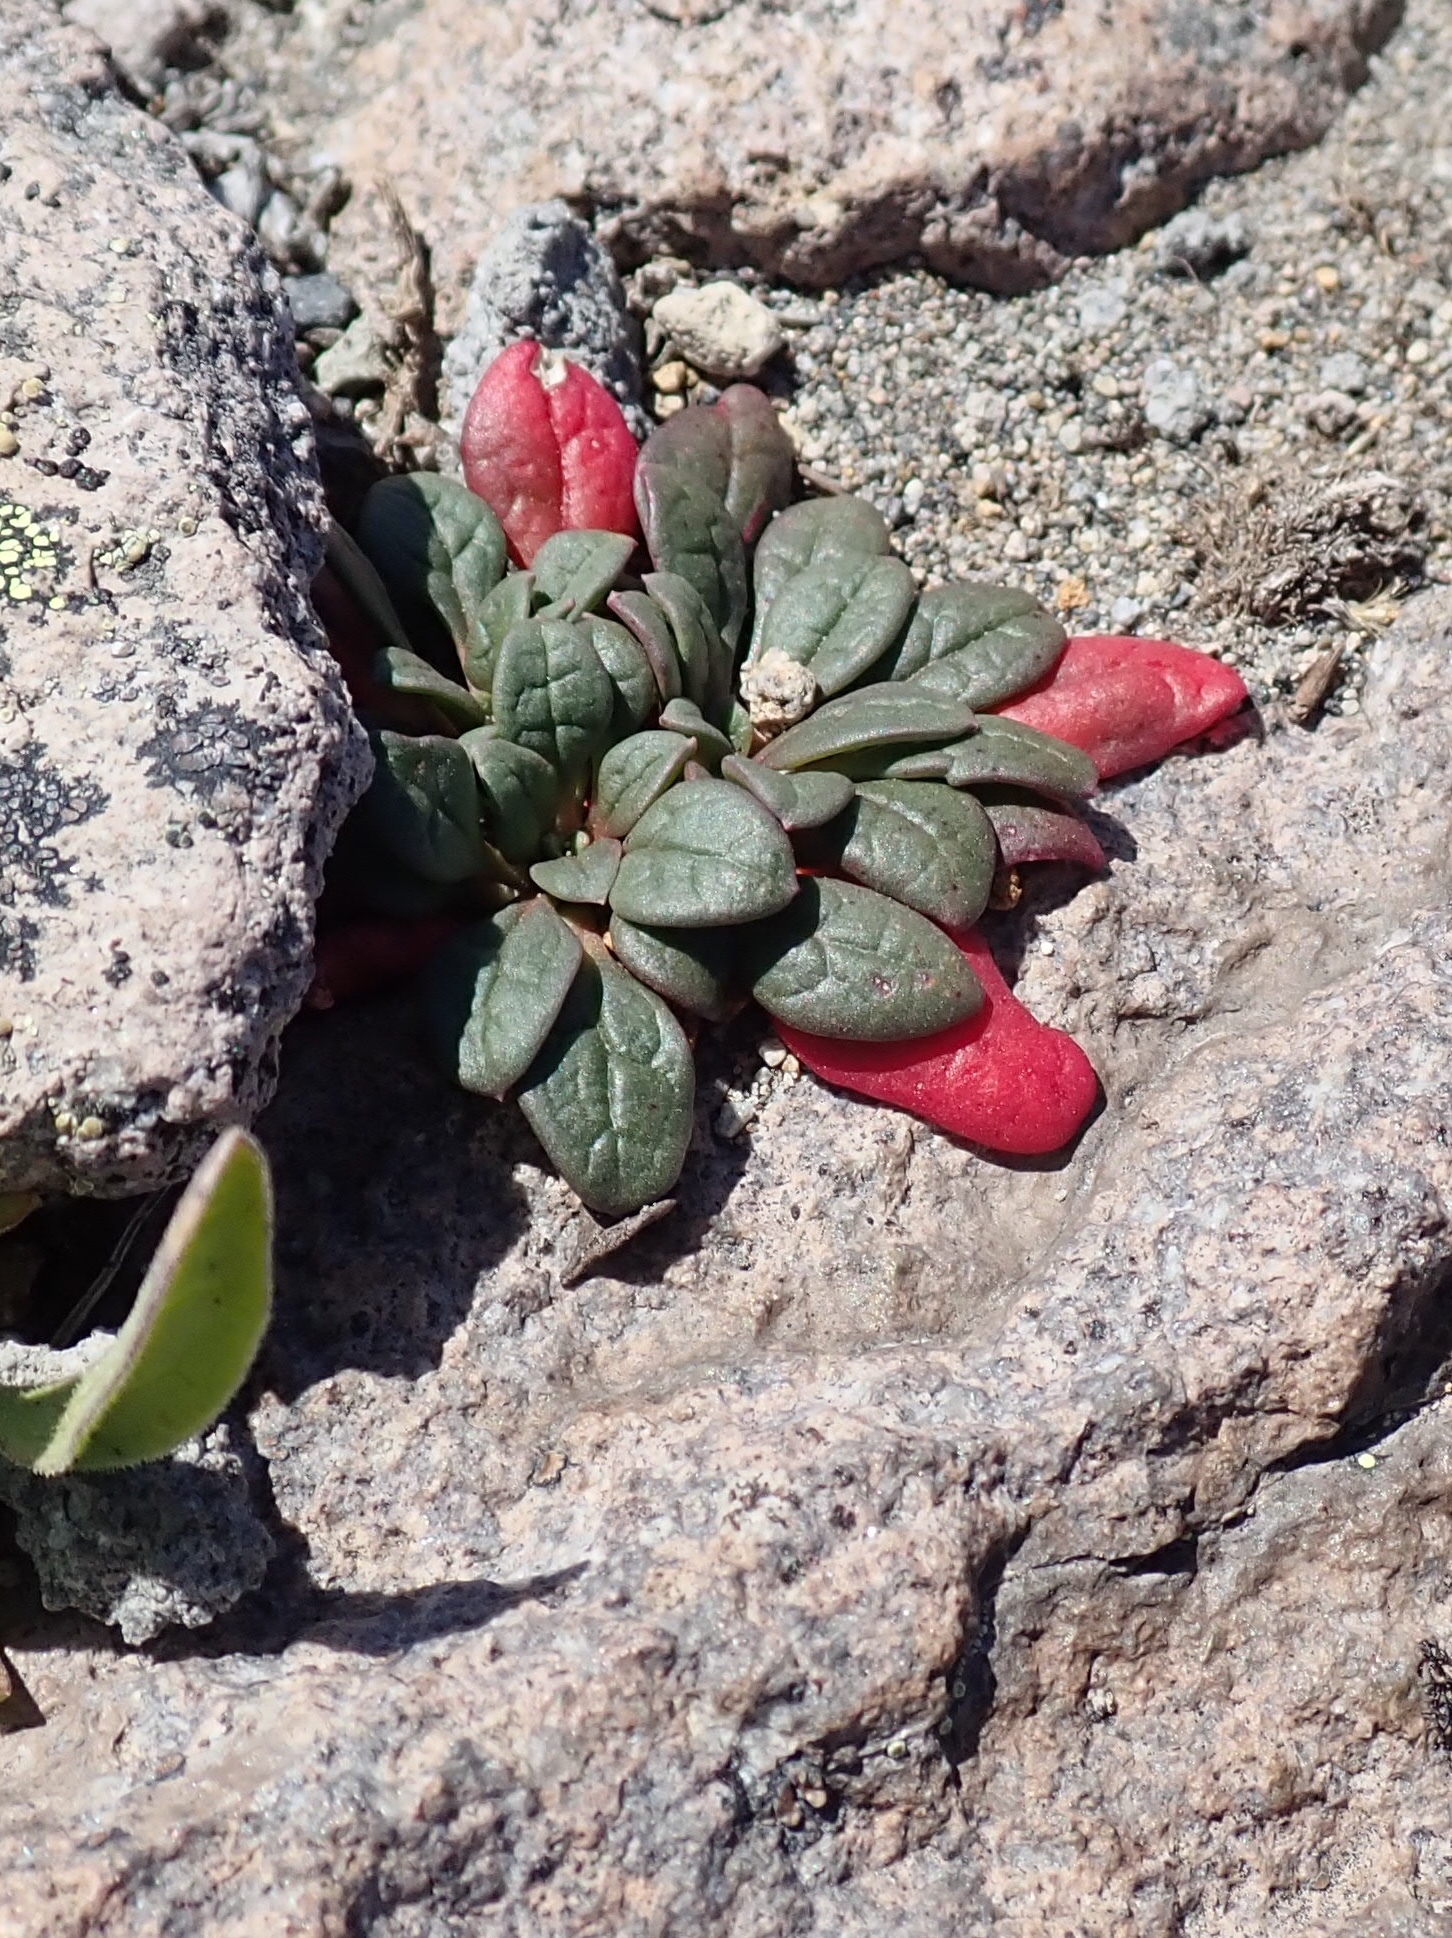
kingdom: Plantae
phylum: Tracheophyta
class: Magnoliopsida
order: Caryophyllales
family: Montiaceae
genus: Calyptridium
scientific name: Calyptridium umbellatum
